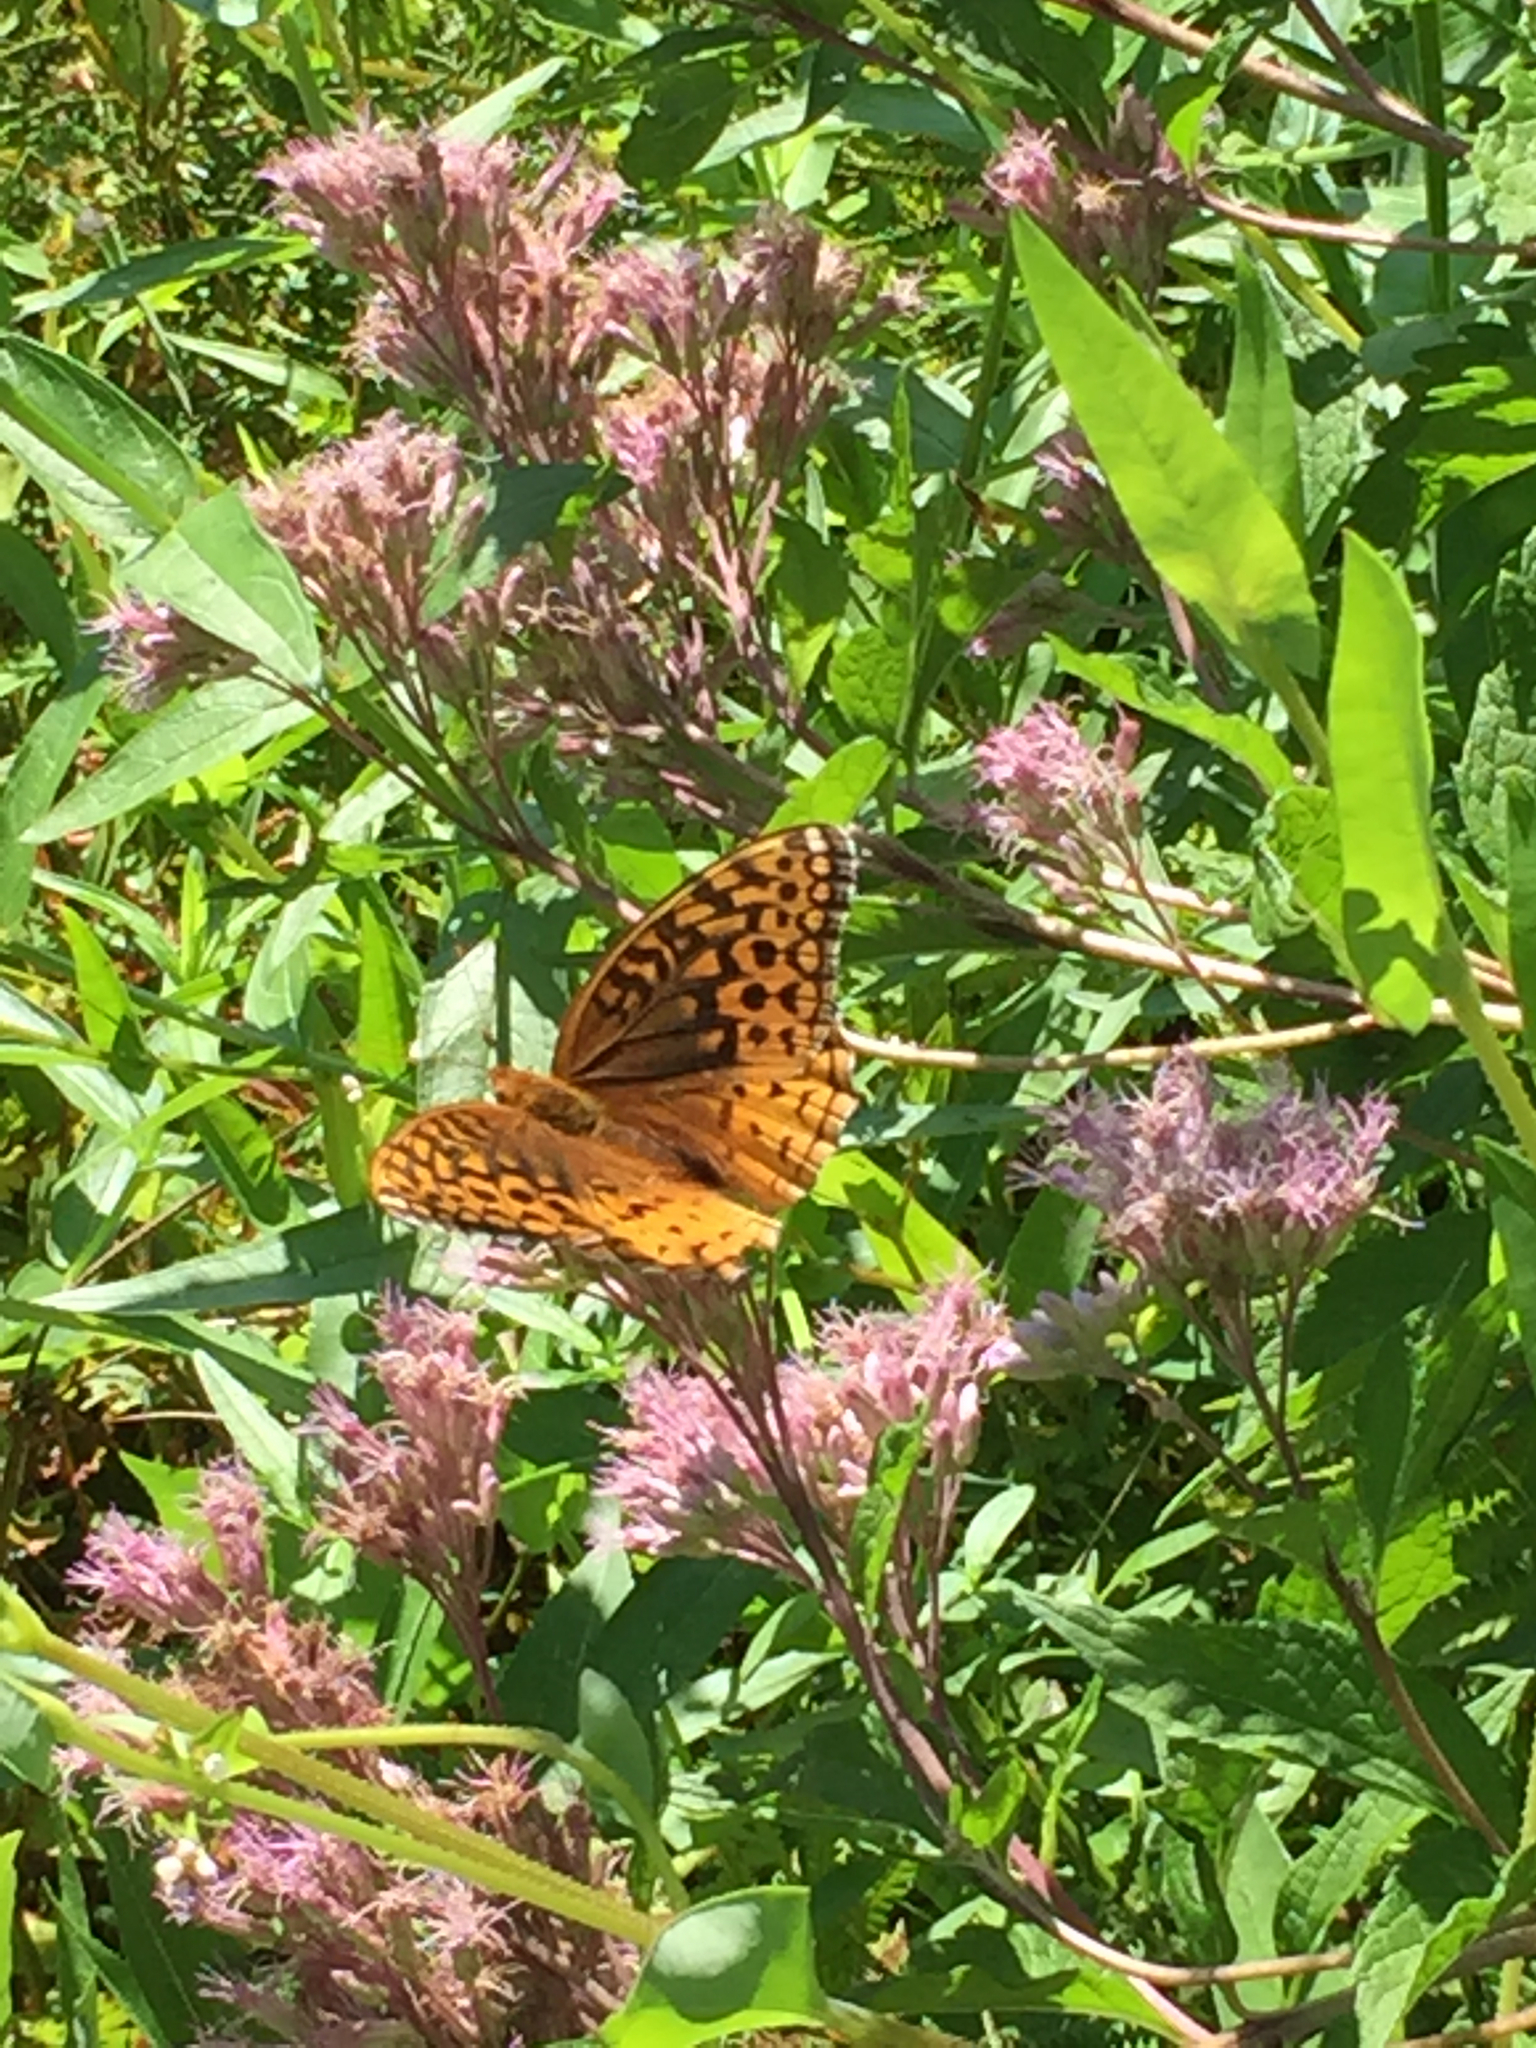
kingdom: Animalia
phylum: Arthropoda
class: Insecta
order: Lepidoptera
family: Nymphalidae
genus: Speyeria
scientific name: Speyeria cybele
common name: Great spangled fritillary
